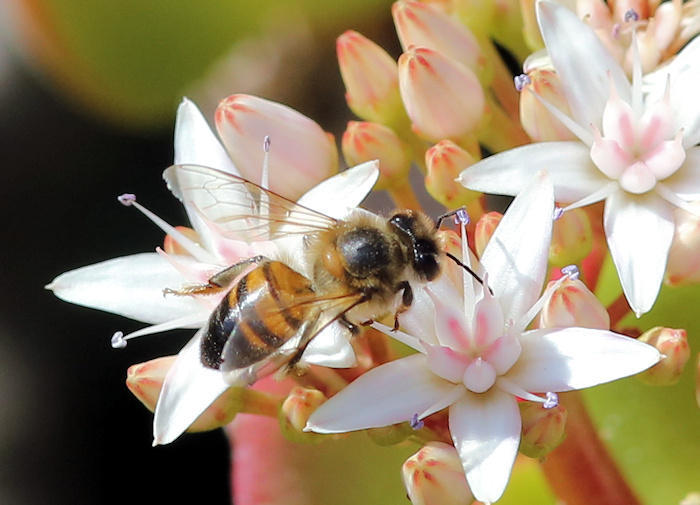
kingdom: Animalia
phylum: Arthropoda
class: Insecta
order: Hymenoptera
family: Apidae
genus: Apis
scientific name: Apis mellifera
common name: Honey bee
